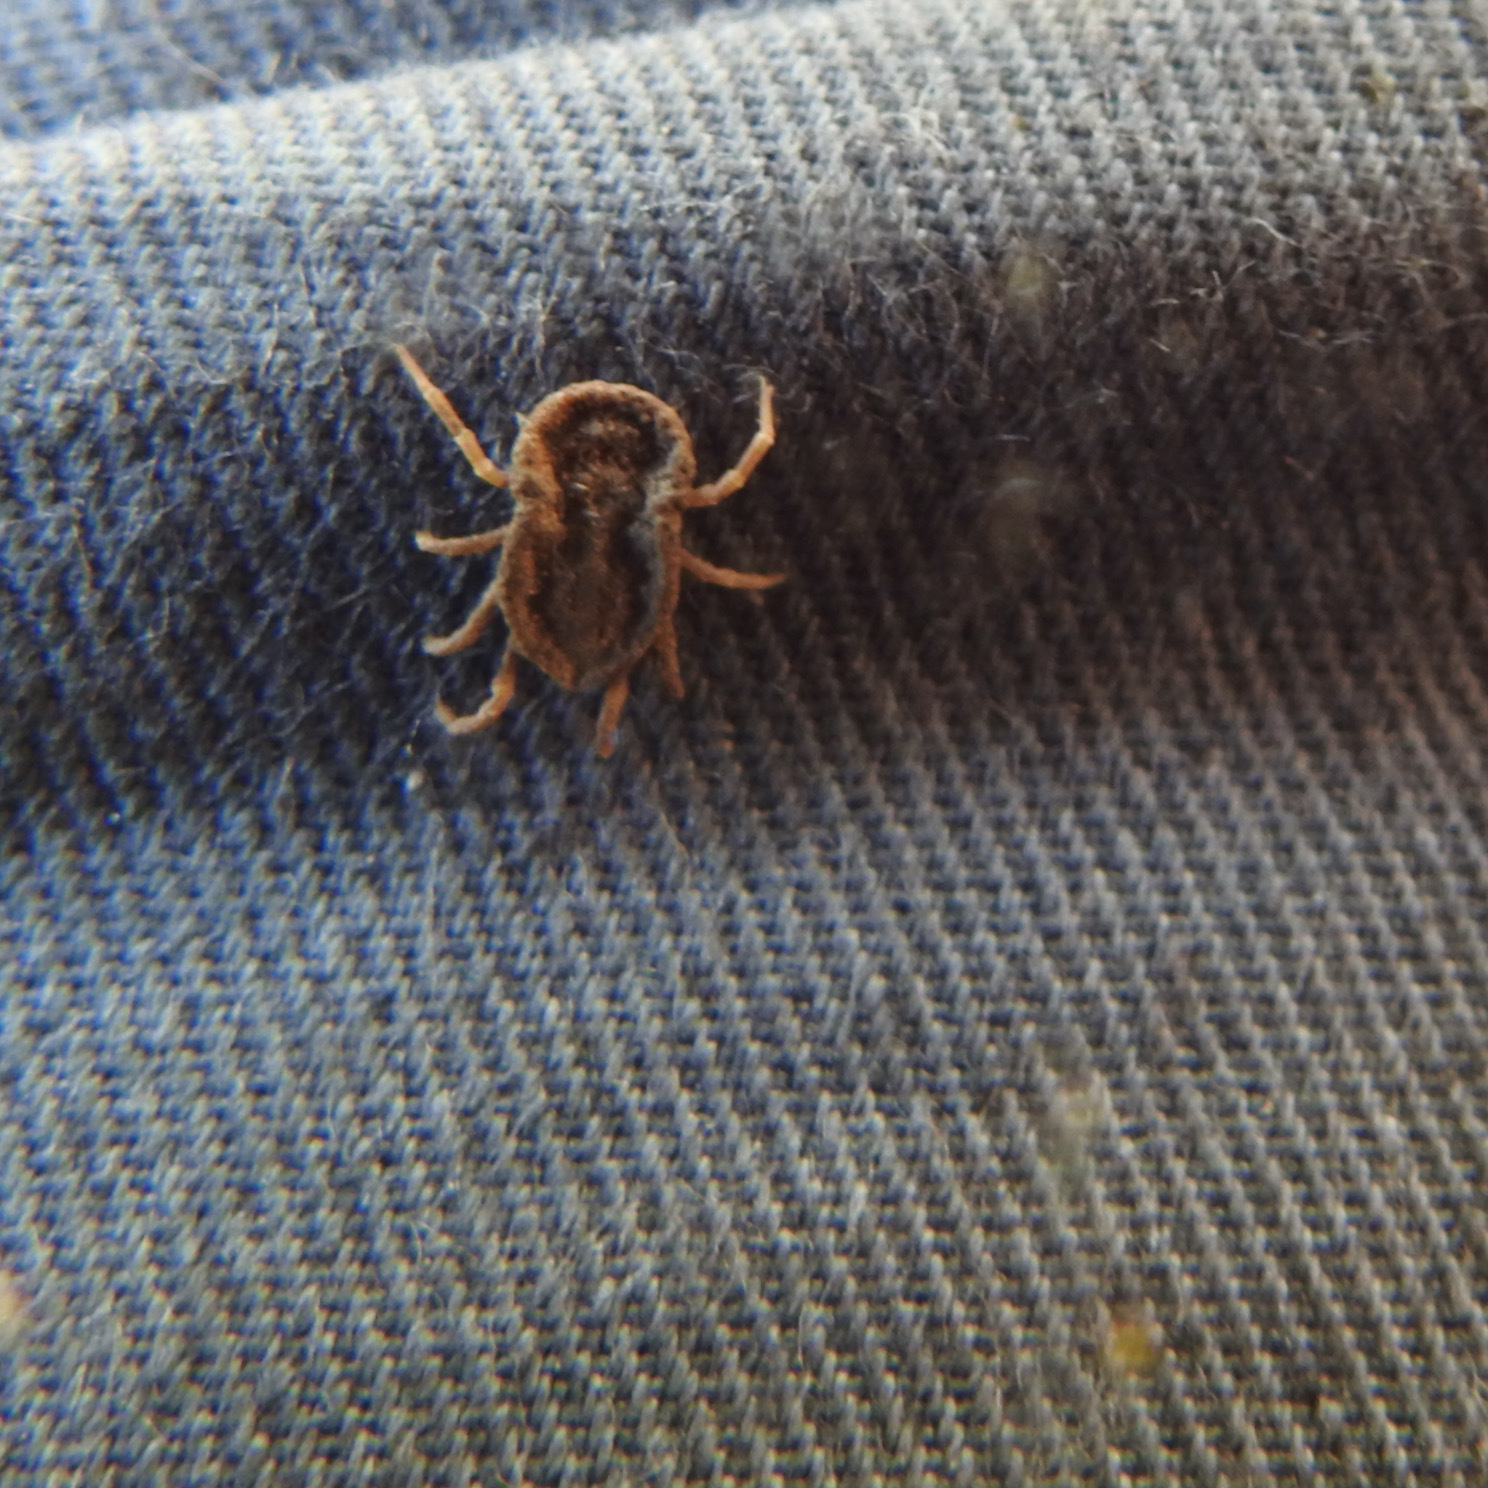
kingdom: Animalia
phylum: Arthropoda
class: Arachnida
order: Ixodida
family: Argasidae
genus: Ornithodoros
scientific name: Ornithodoros coriaceus
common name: Pajahuello tick
